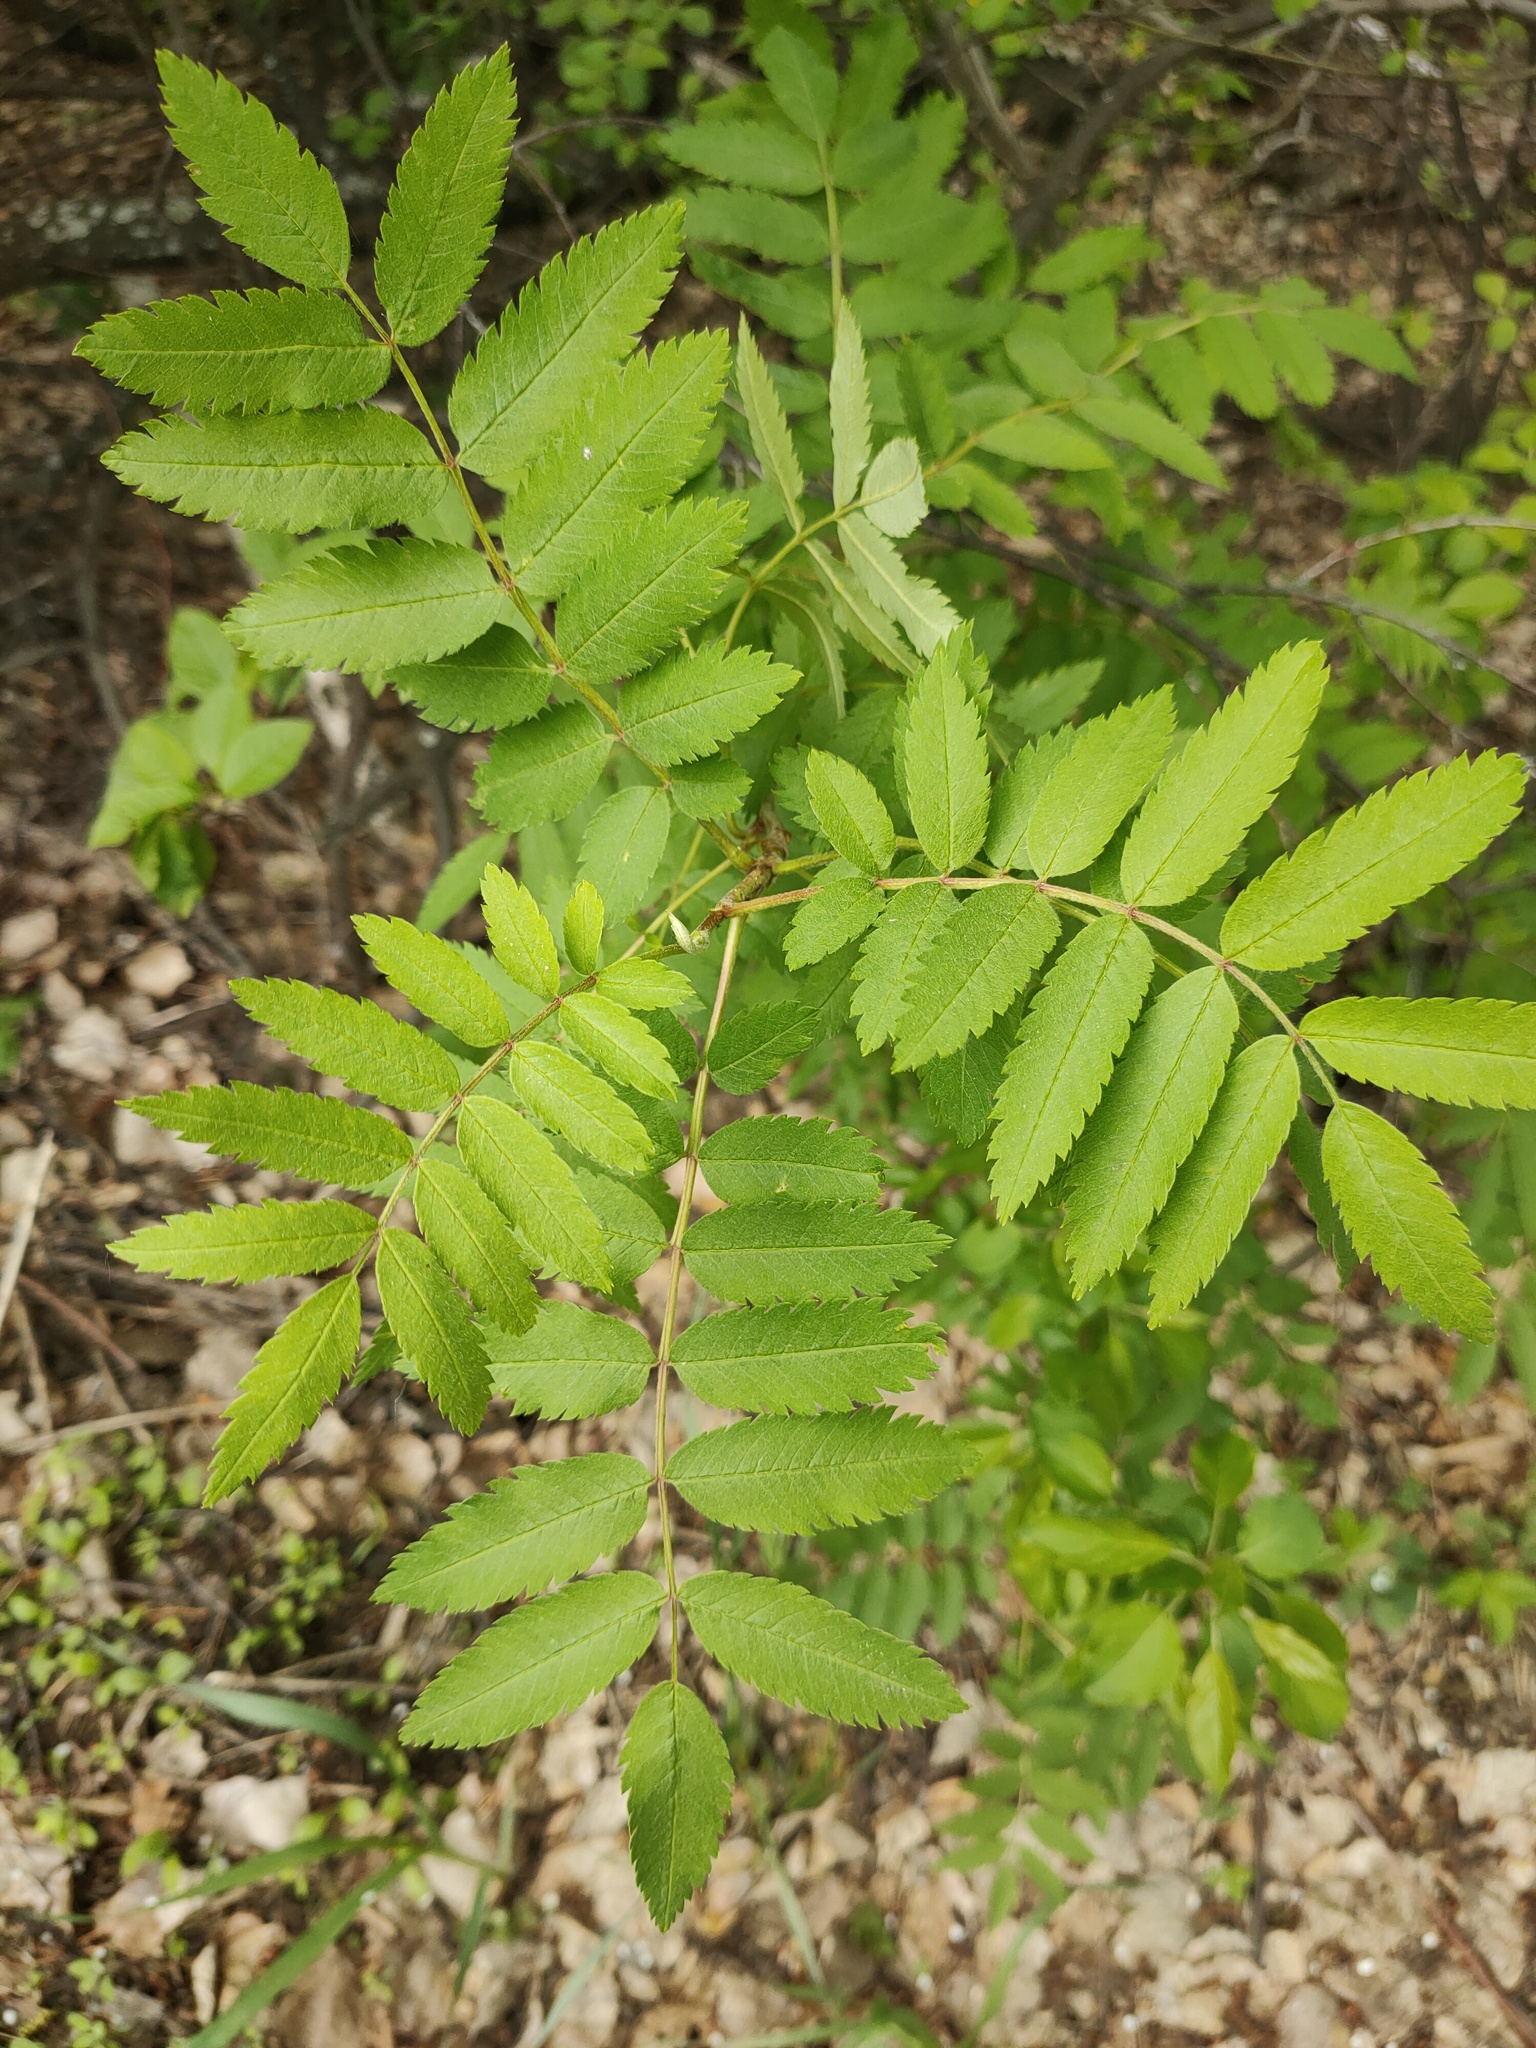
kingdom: Plantae
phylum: Tracheophyta
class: Magnoliopsida
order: Rosales
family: Rosaceae
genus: Sorbus
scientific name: Sorbus aucuparia
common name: Rowan
